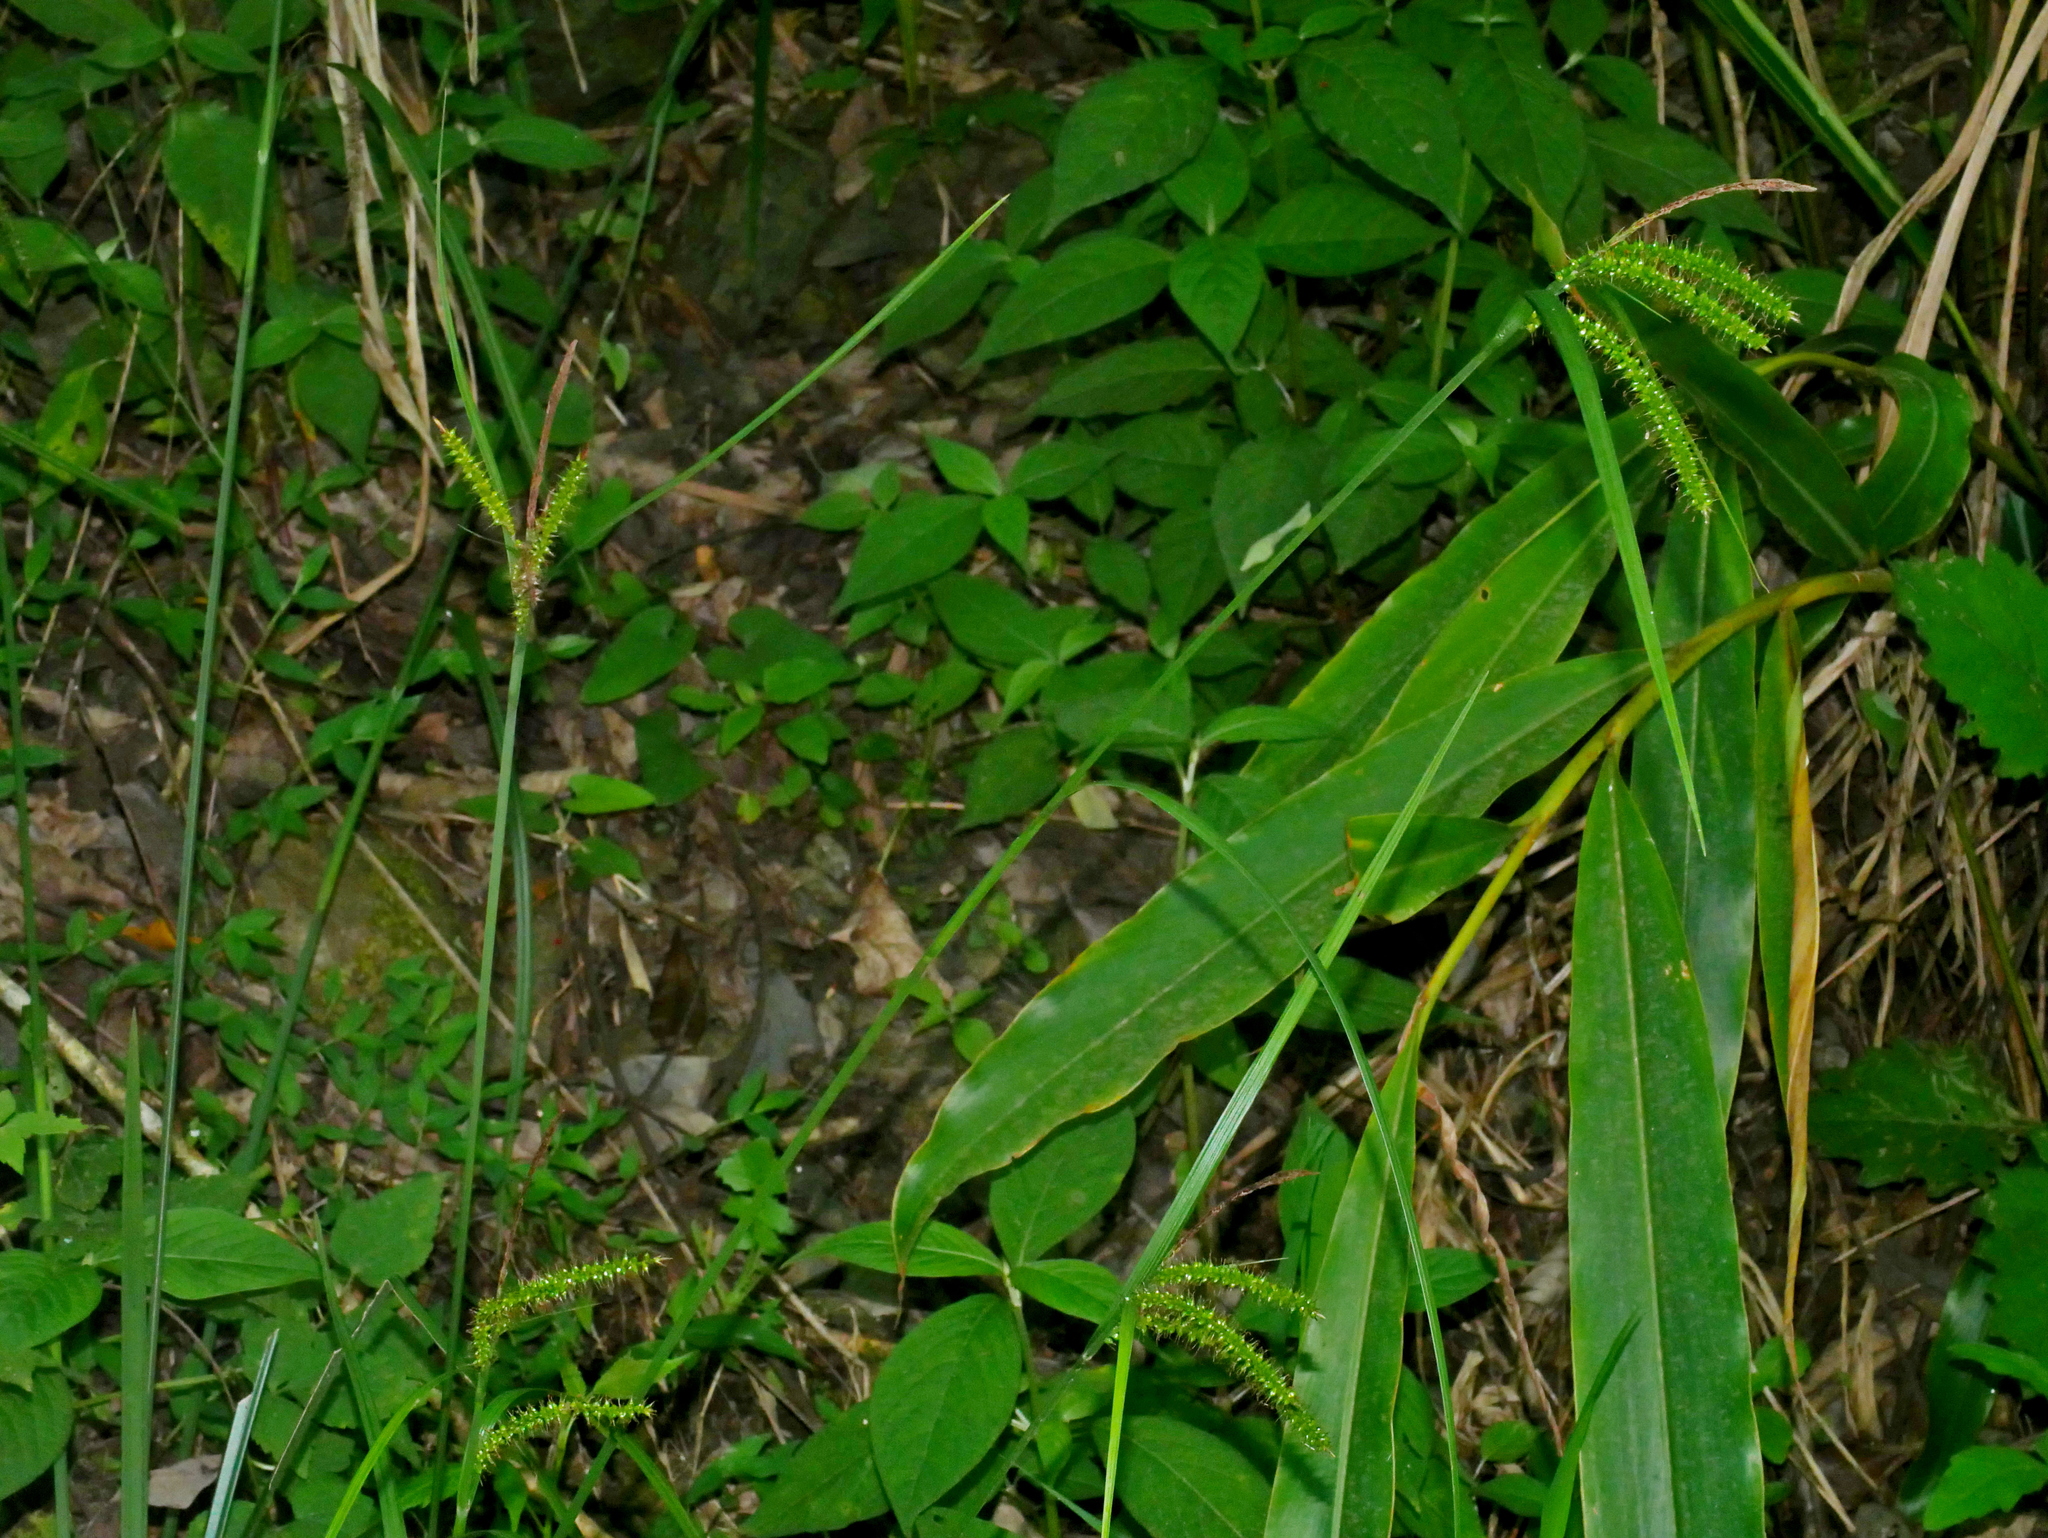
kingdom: Plantae
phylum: Tracheophyta
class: Liliopsida
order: Poales
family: Cyperaceae
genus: Carex
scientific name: Carex retrofracta
